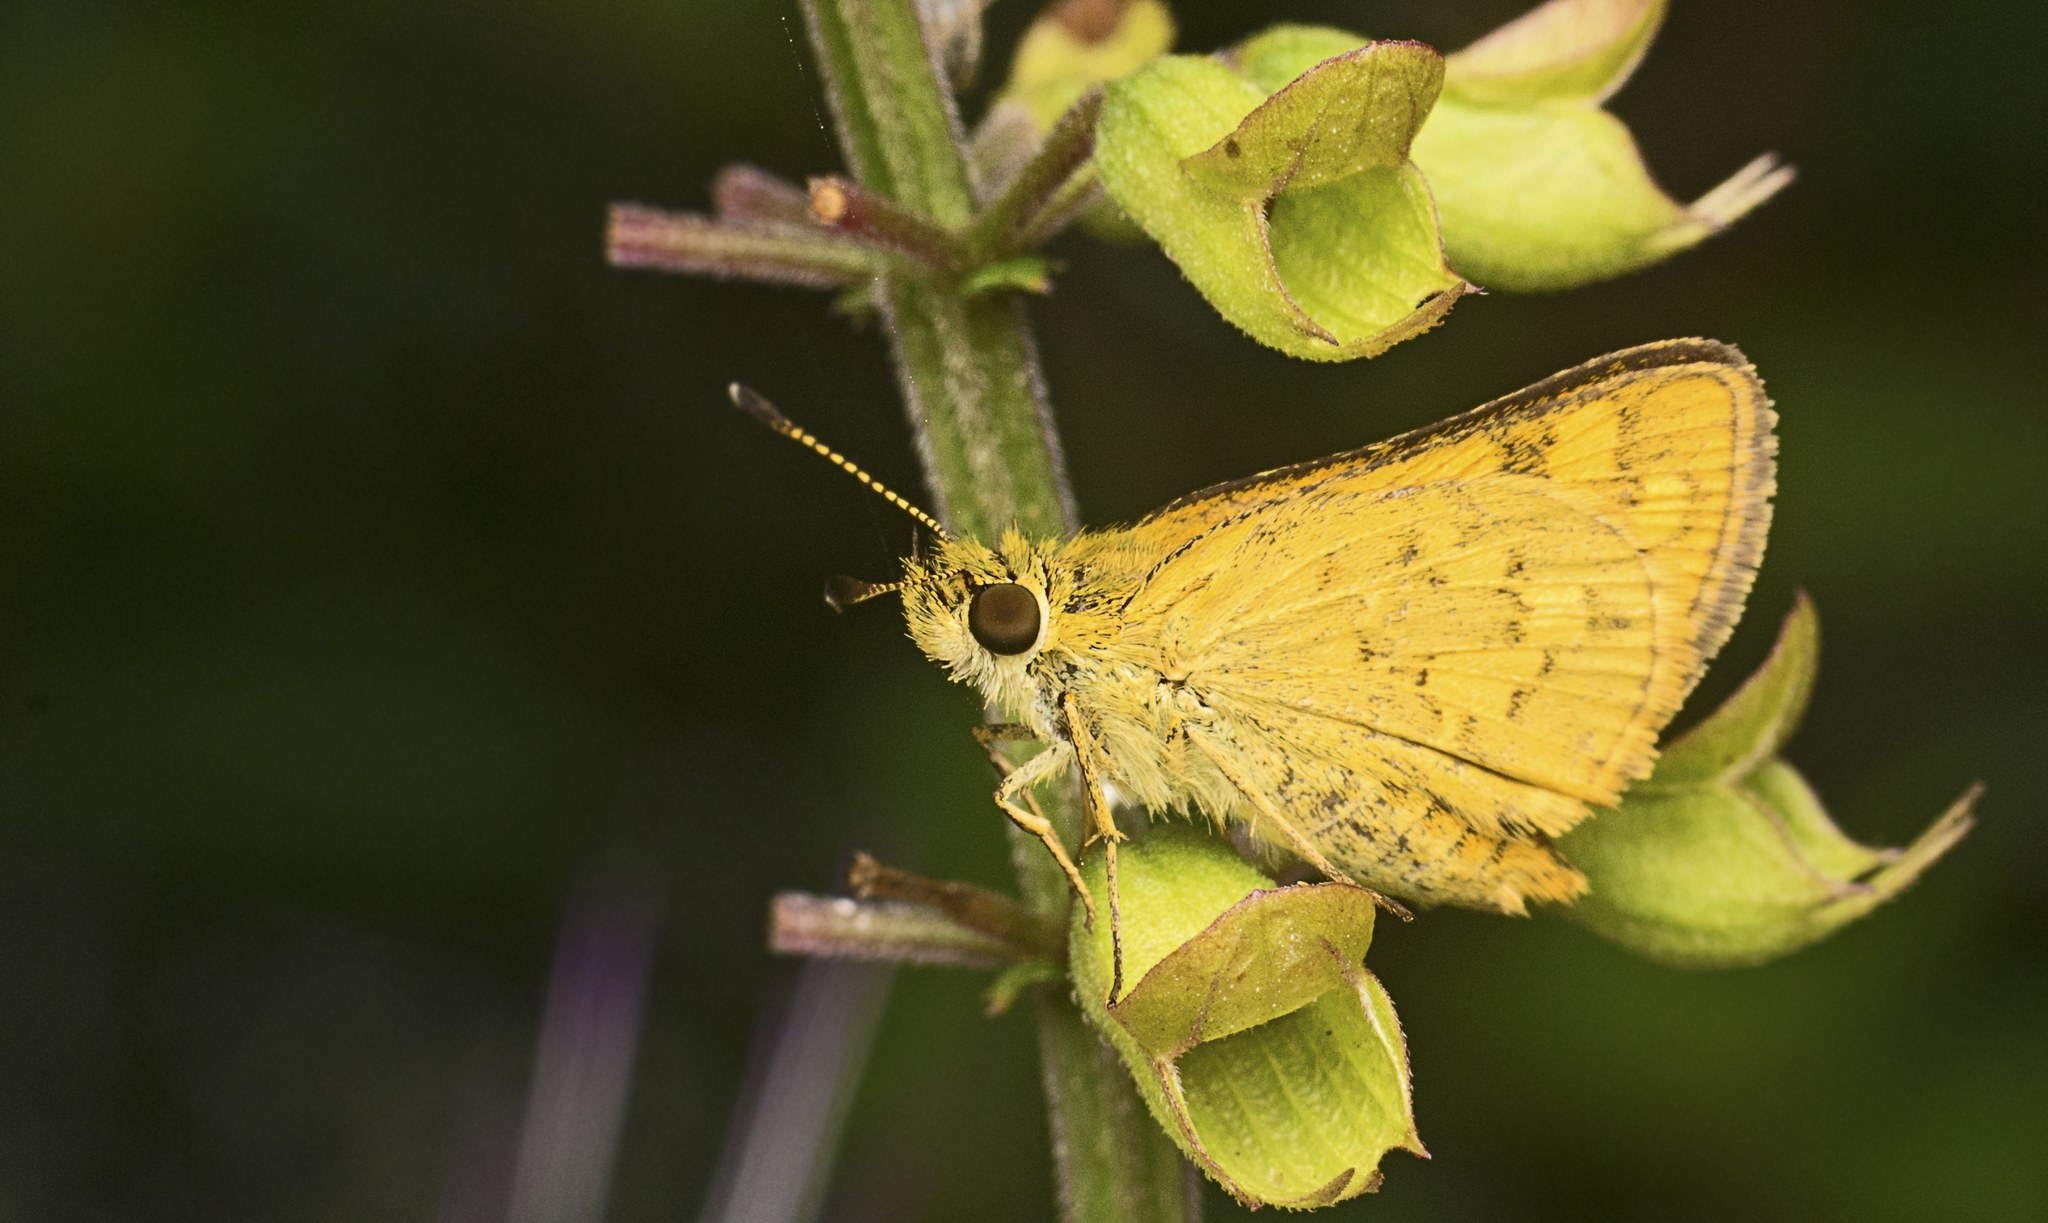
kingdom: Animalia
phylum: Arthropoda
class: Insecta
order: Lepidoptera
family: Hesperiidae
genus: Ocybadistes
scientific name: Ocybadistes walkeri
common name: Yellow-banded dart
